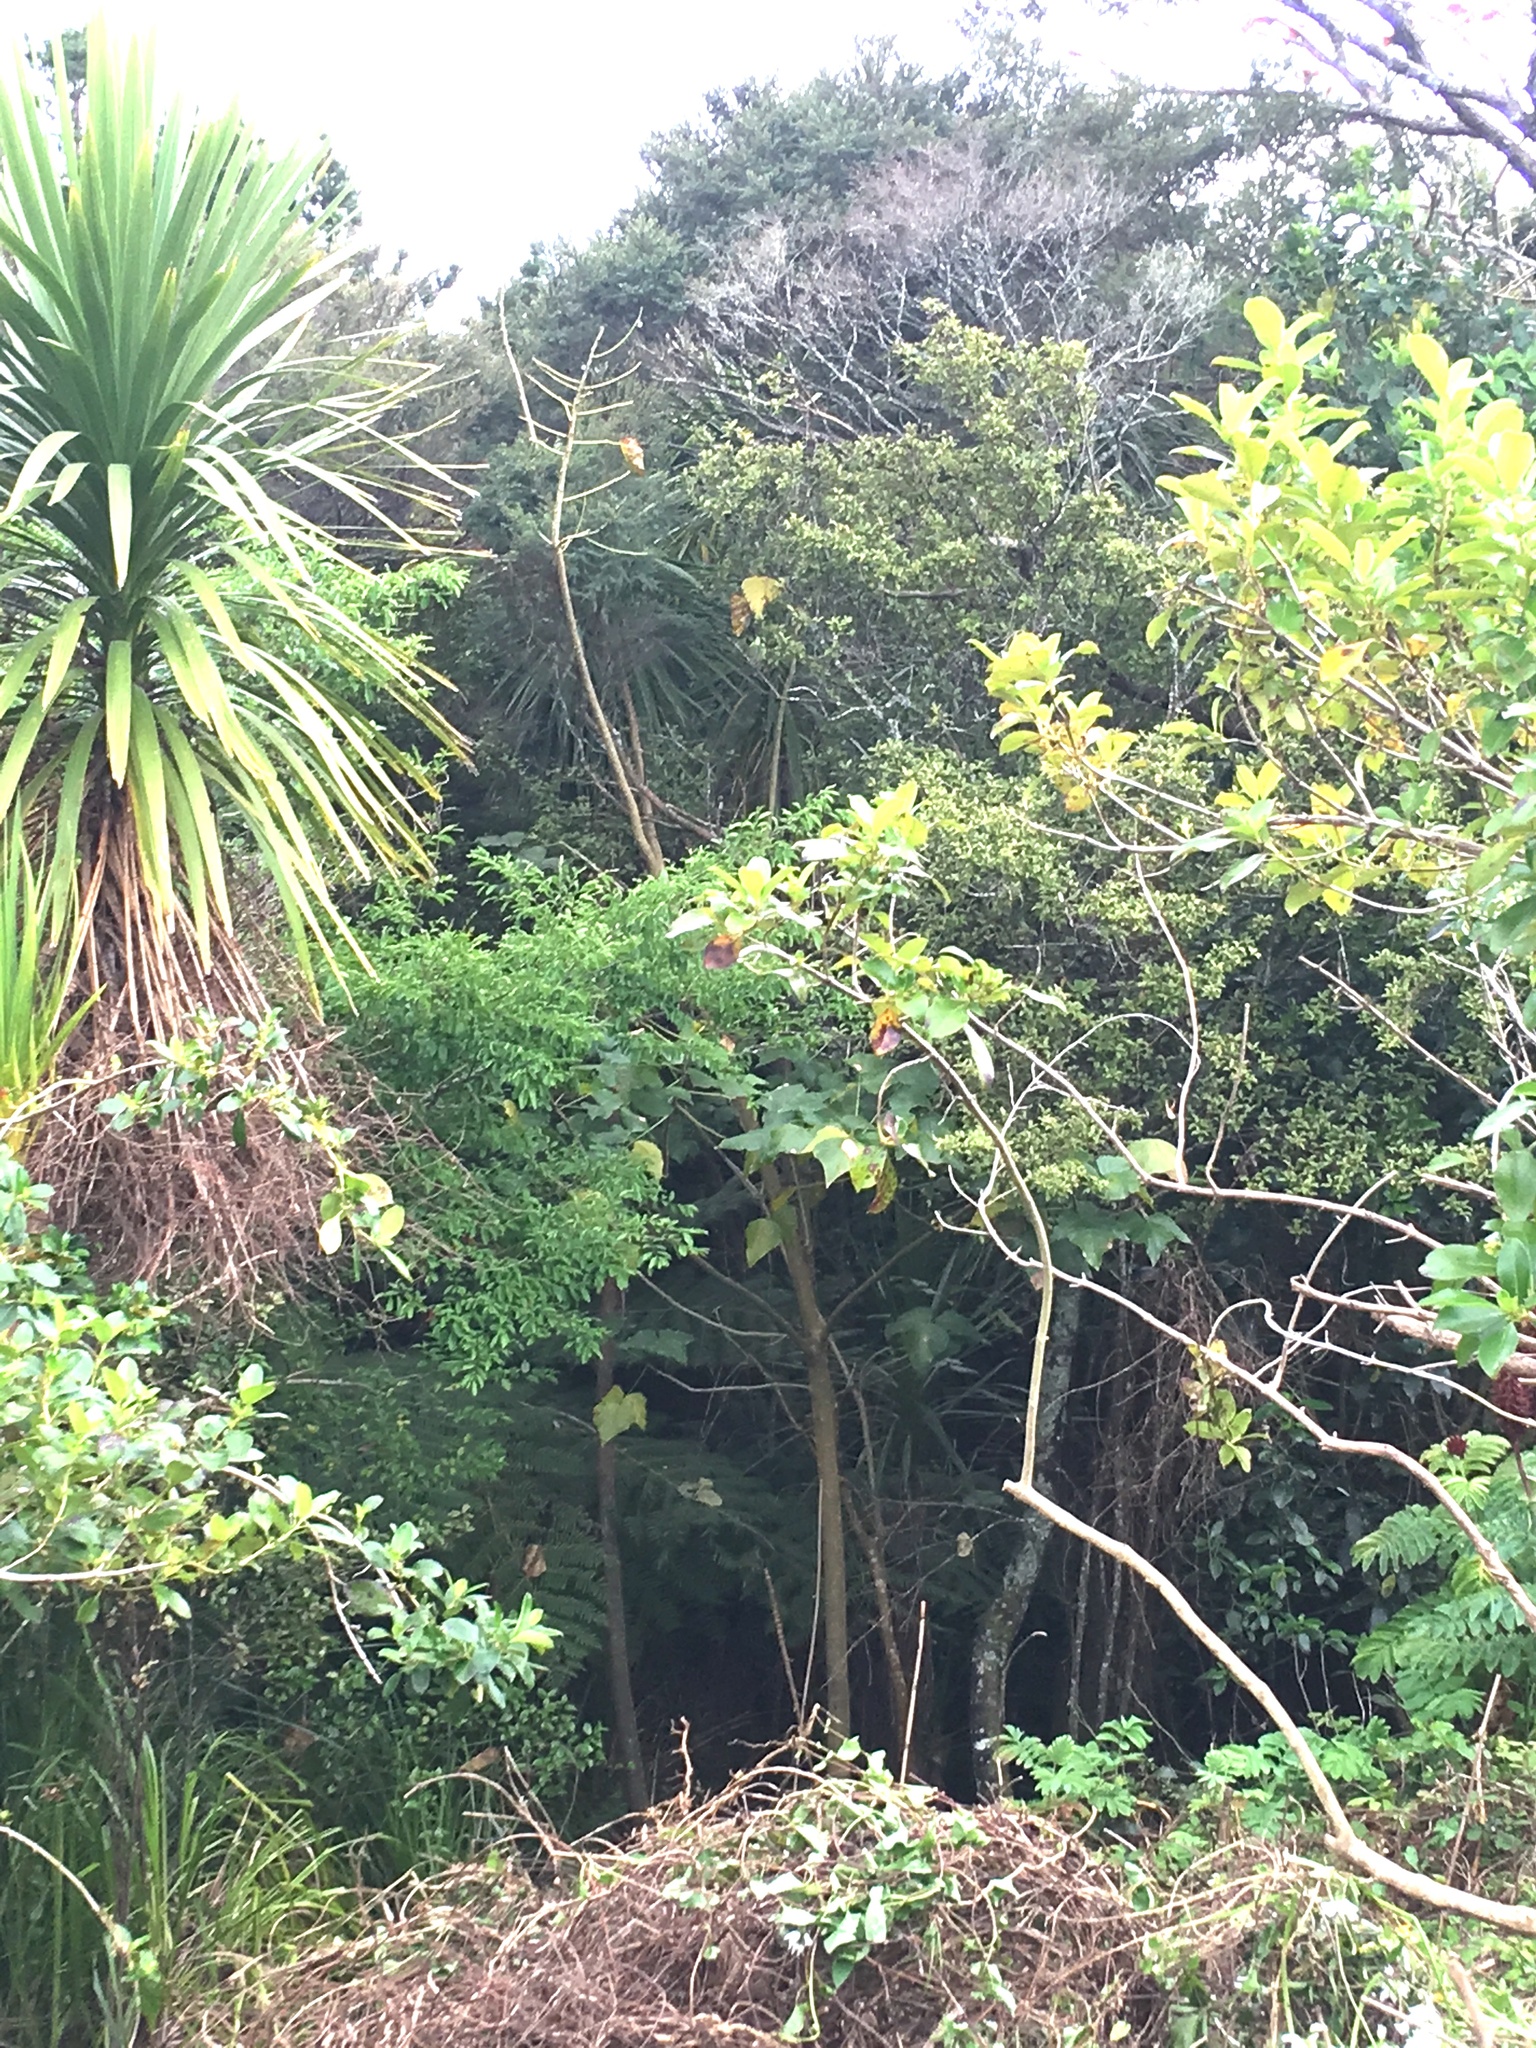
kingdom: Plantae
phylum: Tracheophyta
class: Magnoliopsida
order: Lamiales
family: Oleaceae
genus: Ligustrum
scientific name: Ligustrum sinense
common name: Chinese privet
